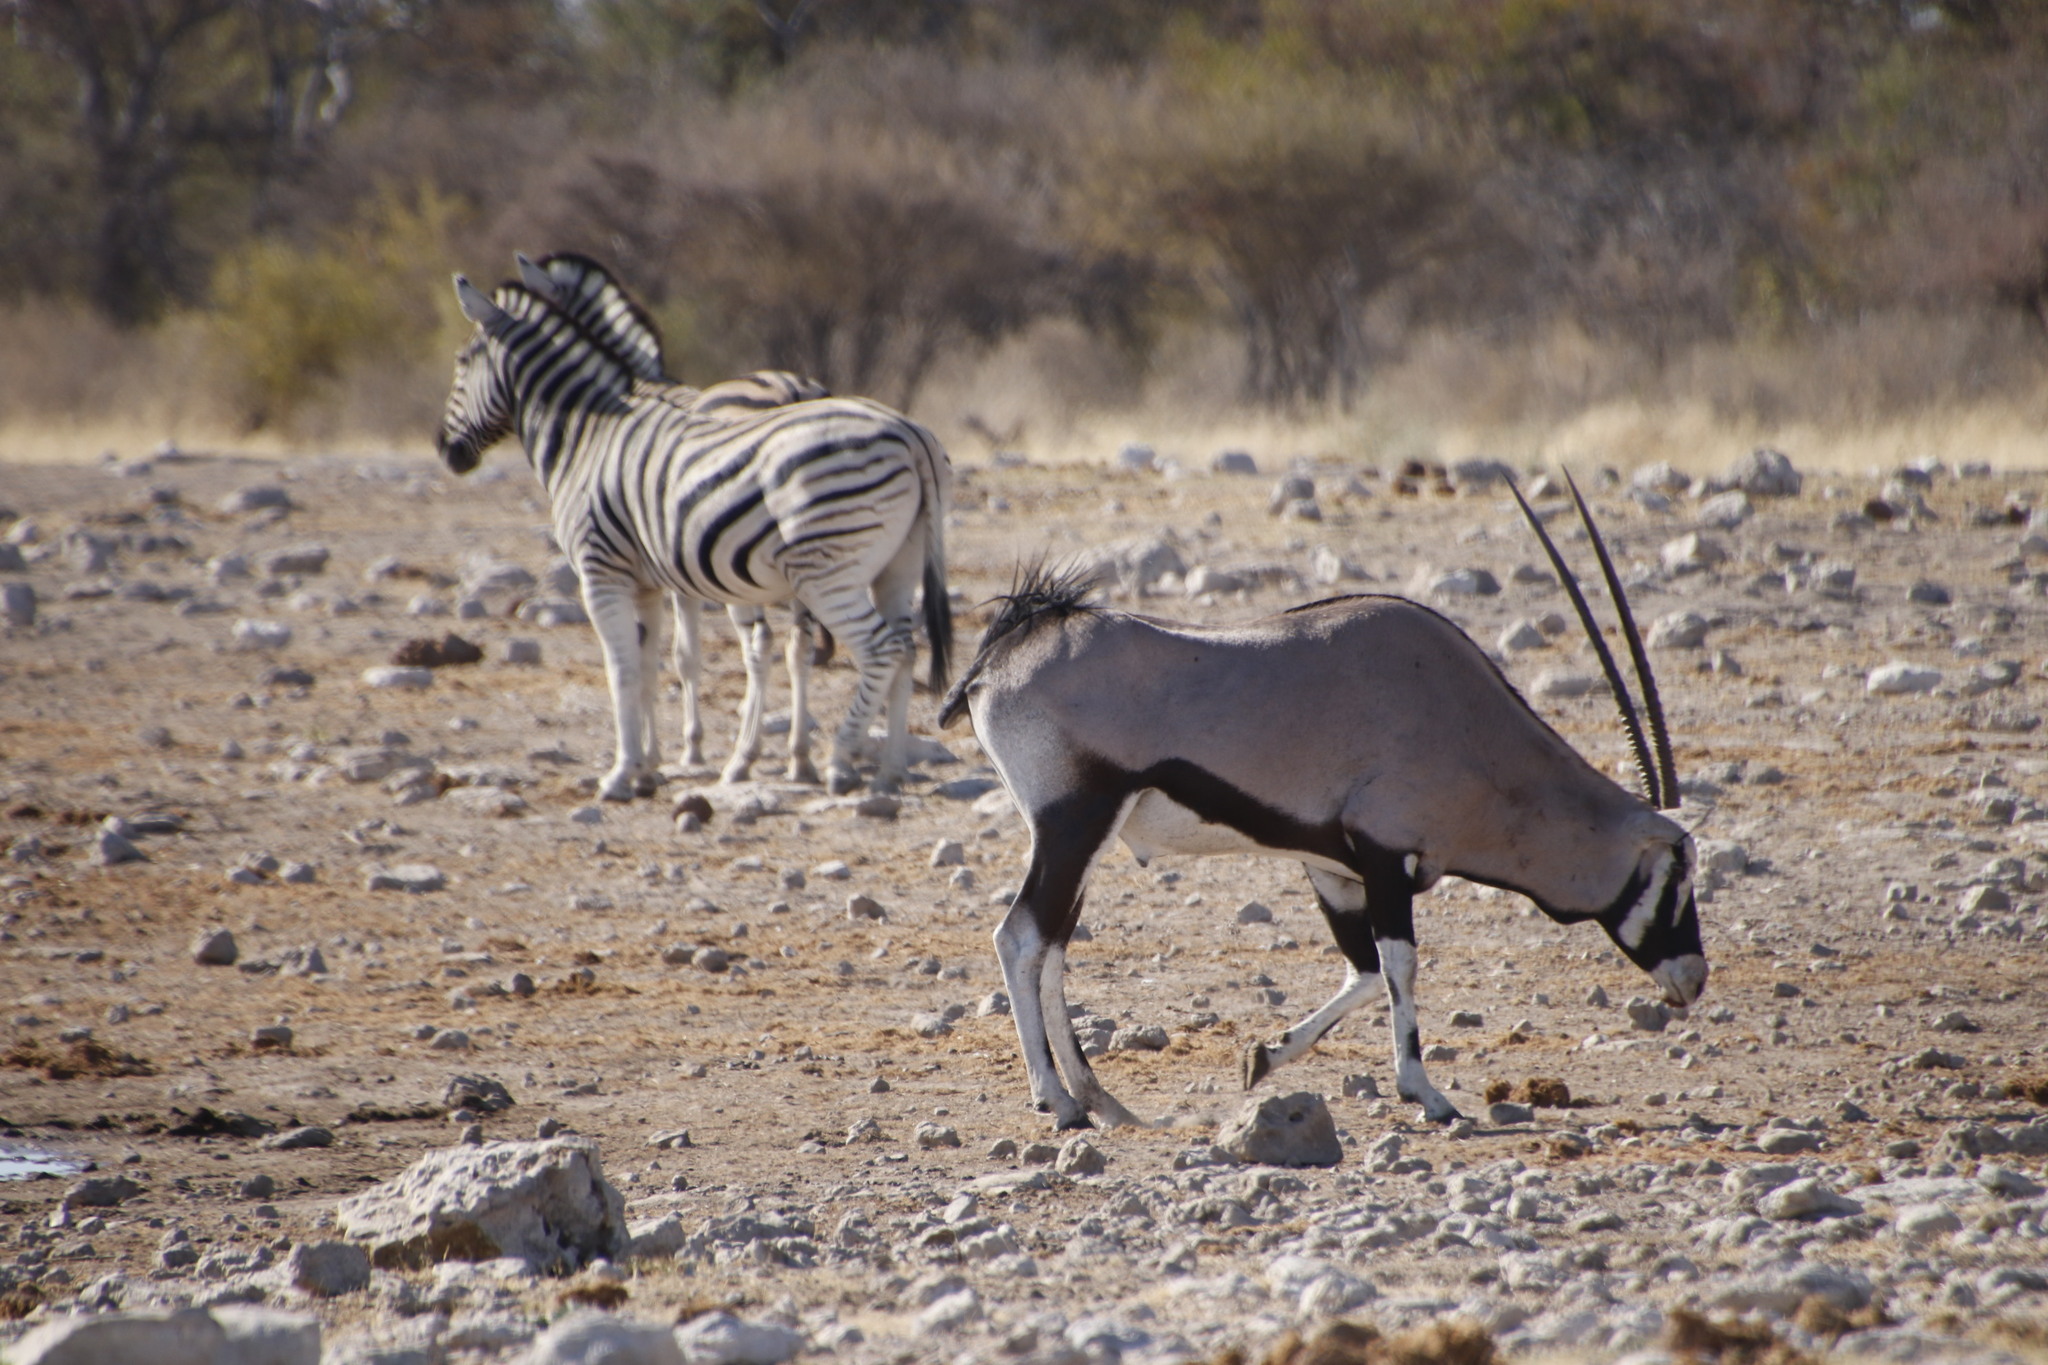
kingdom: Animalia
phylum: Chordata
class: Mammalia
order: Artiodactyla
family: Bovidae
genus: Oryx
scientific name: Oryx gazella
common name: Gemsbok
